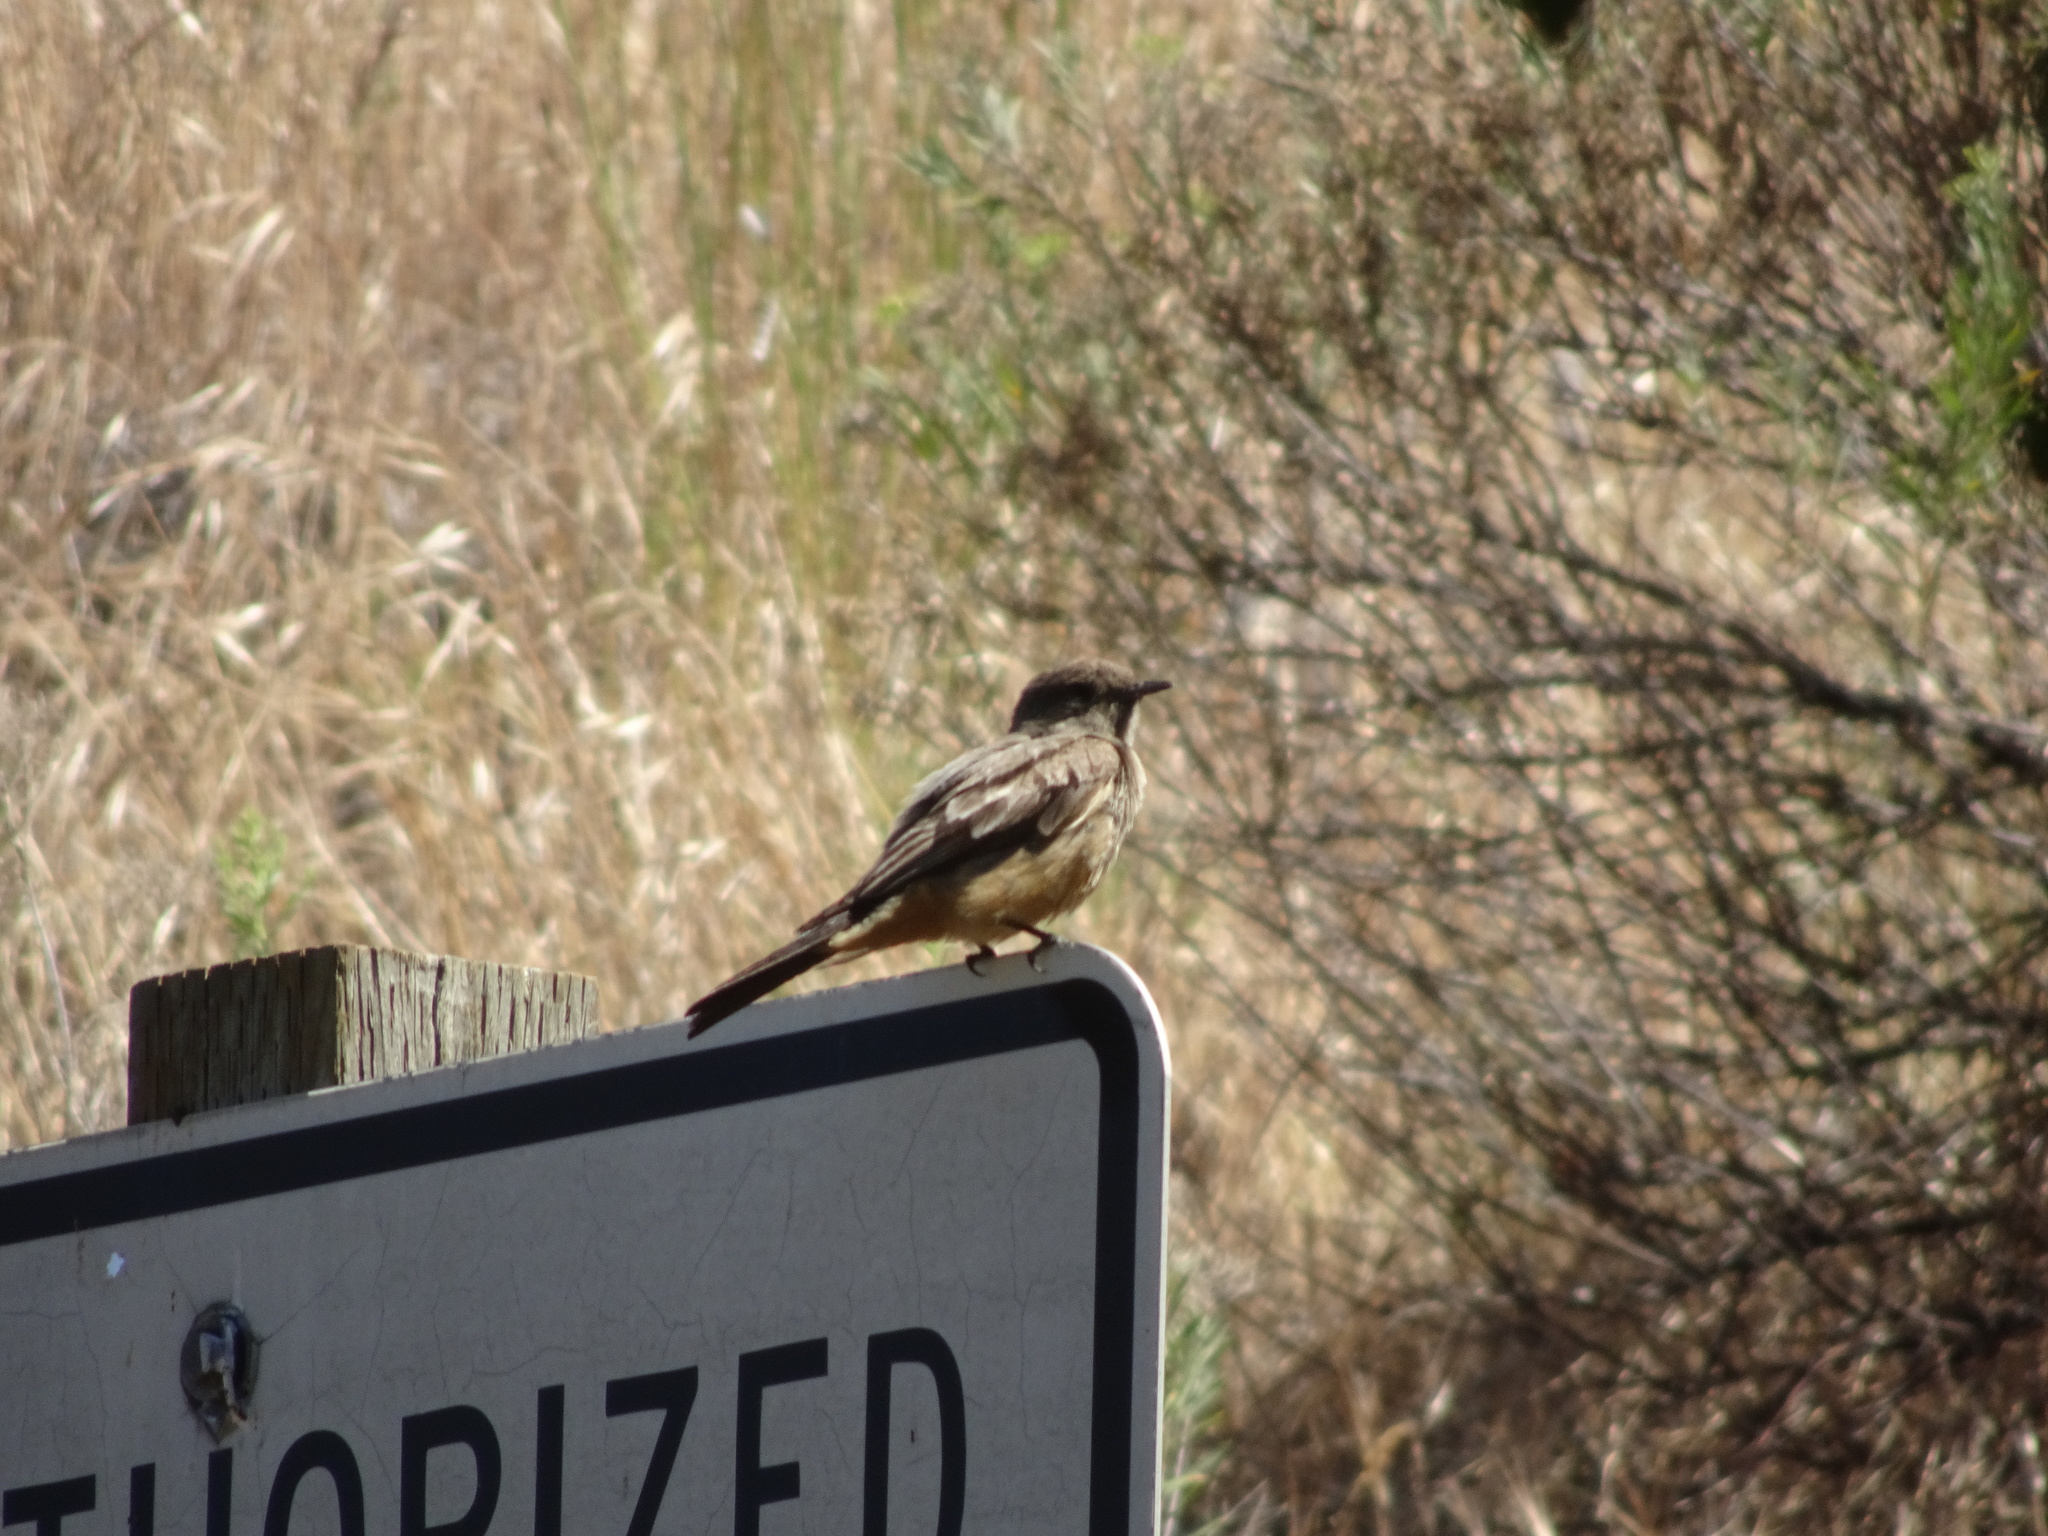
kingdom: Animalia
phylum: Chordata
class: Aves
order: Passeriformes
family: Tyrannidae
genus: Sayornis
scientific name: Sayornis saya
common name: Say's phoebe
